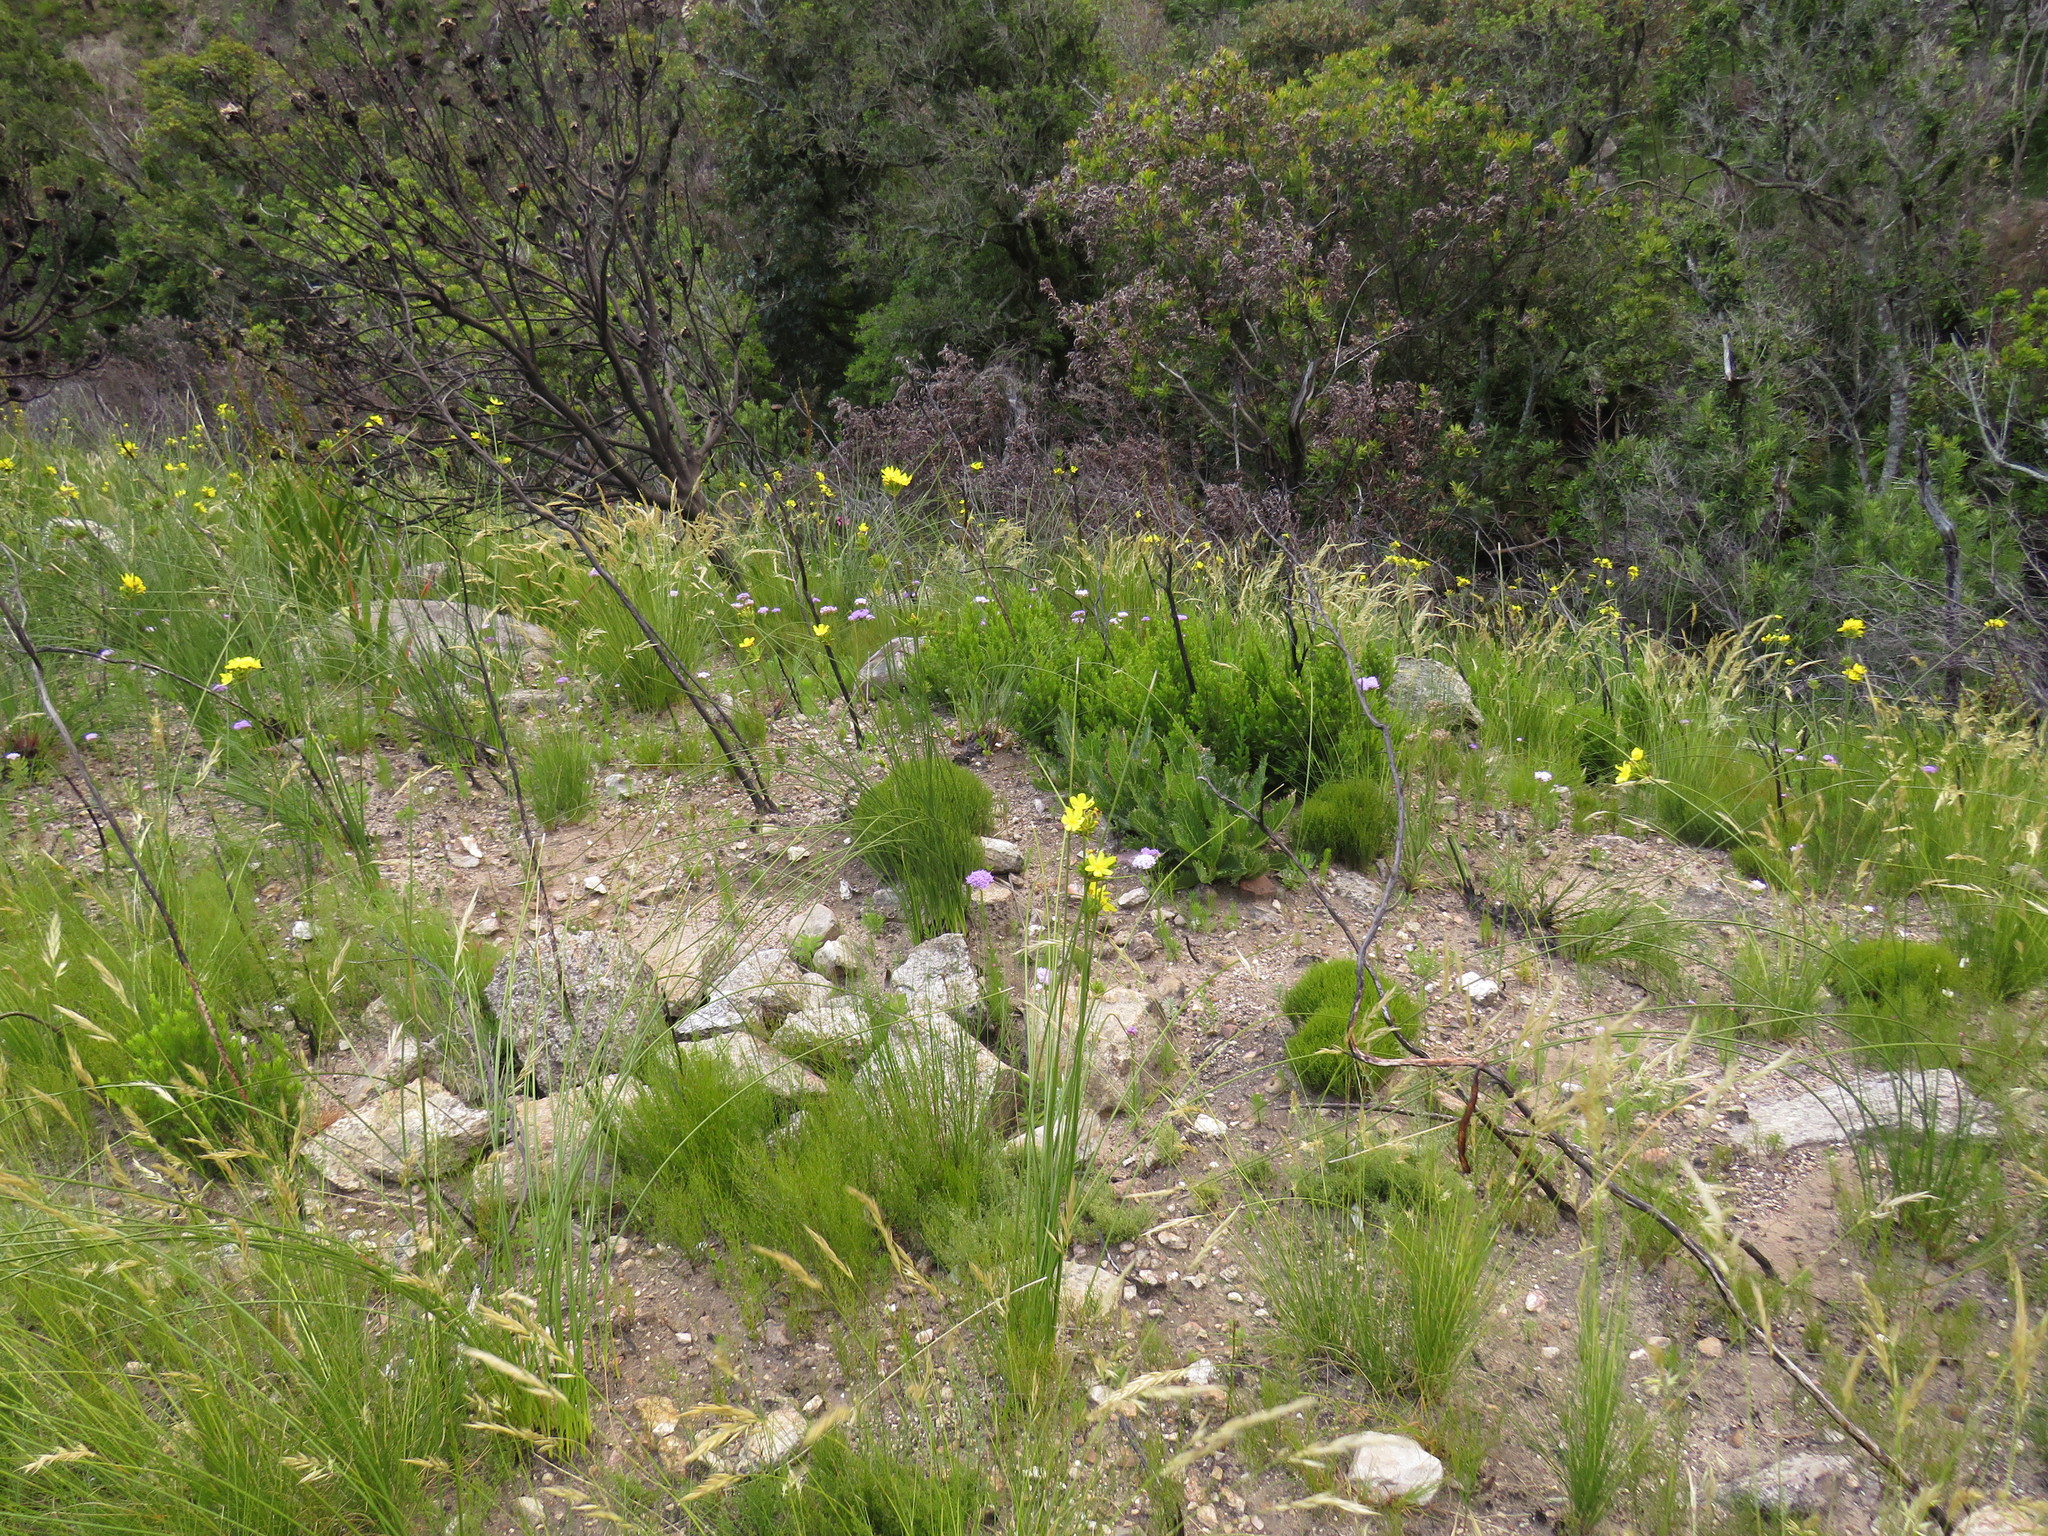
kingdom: Plantae
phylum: Tracheophyta
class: Liliopsida
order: Asparagales
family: Iridaceae
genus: Bobartia
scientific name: Bobartia indica
